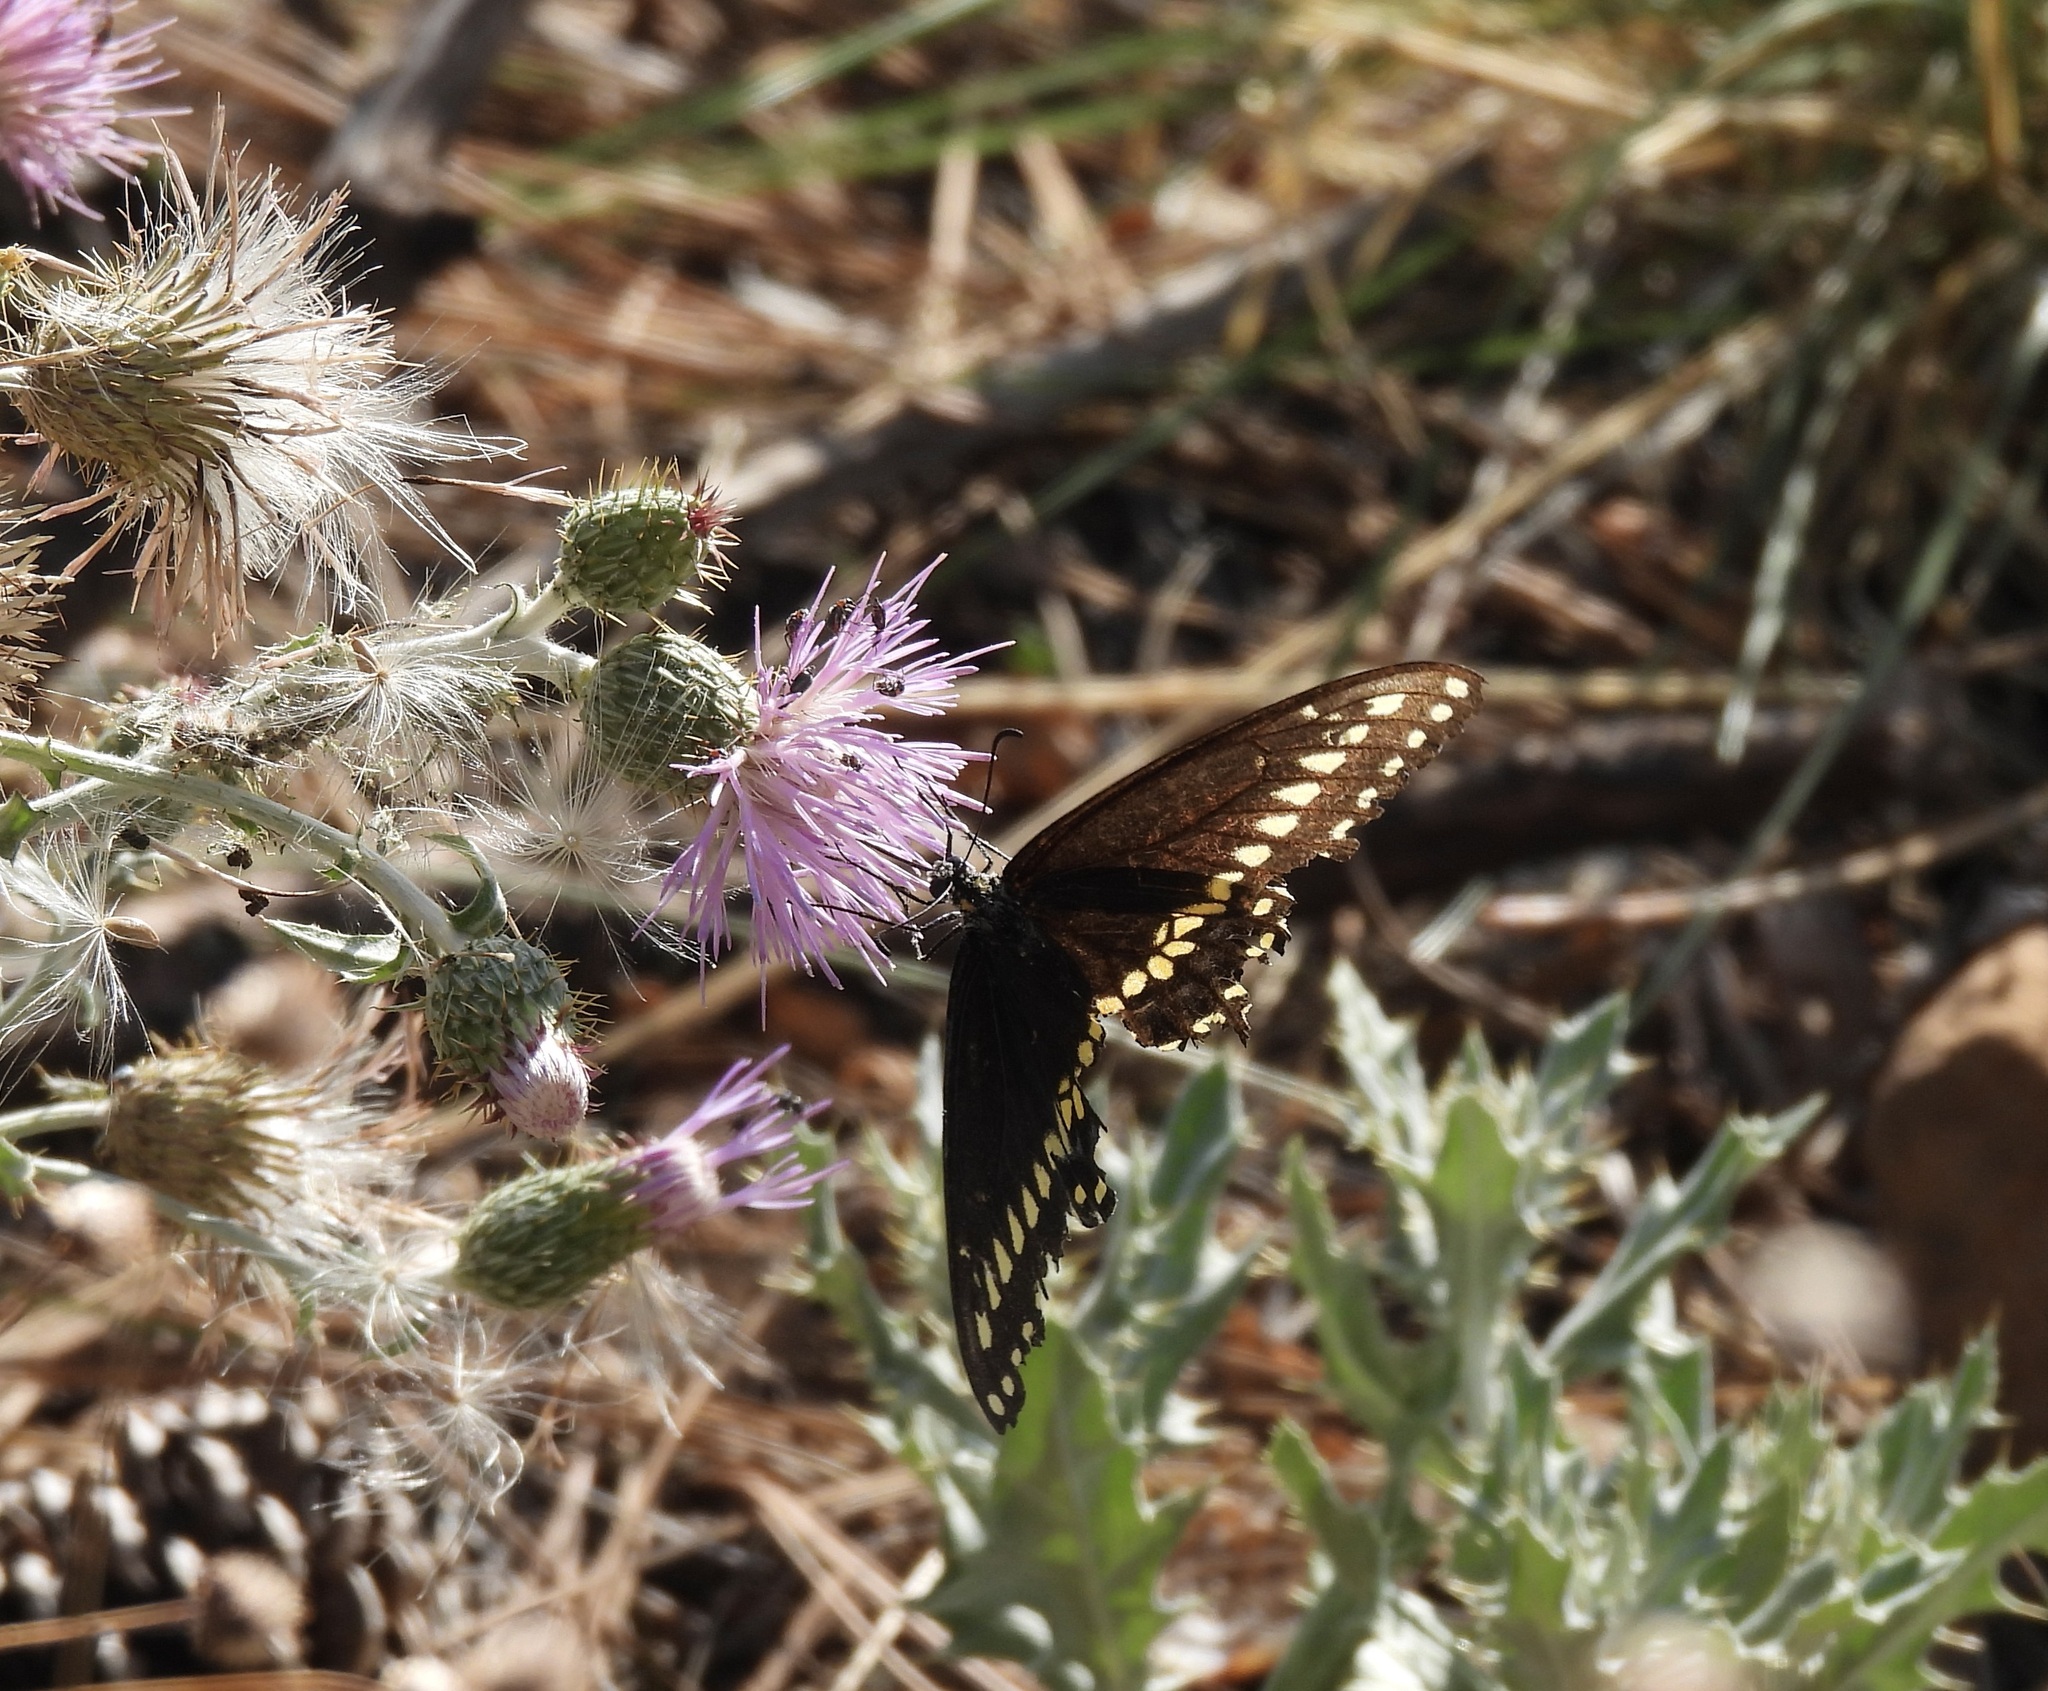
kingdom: Animalia
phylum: Arthropoda
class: Insecta
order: Lepidoptera
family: Papilionidae
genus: Papilio
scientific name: Papilio polyxenes
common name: Black swallowtail
